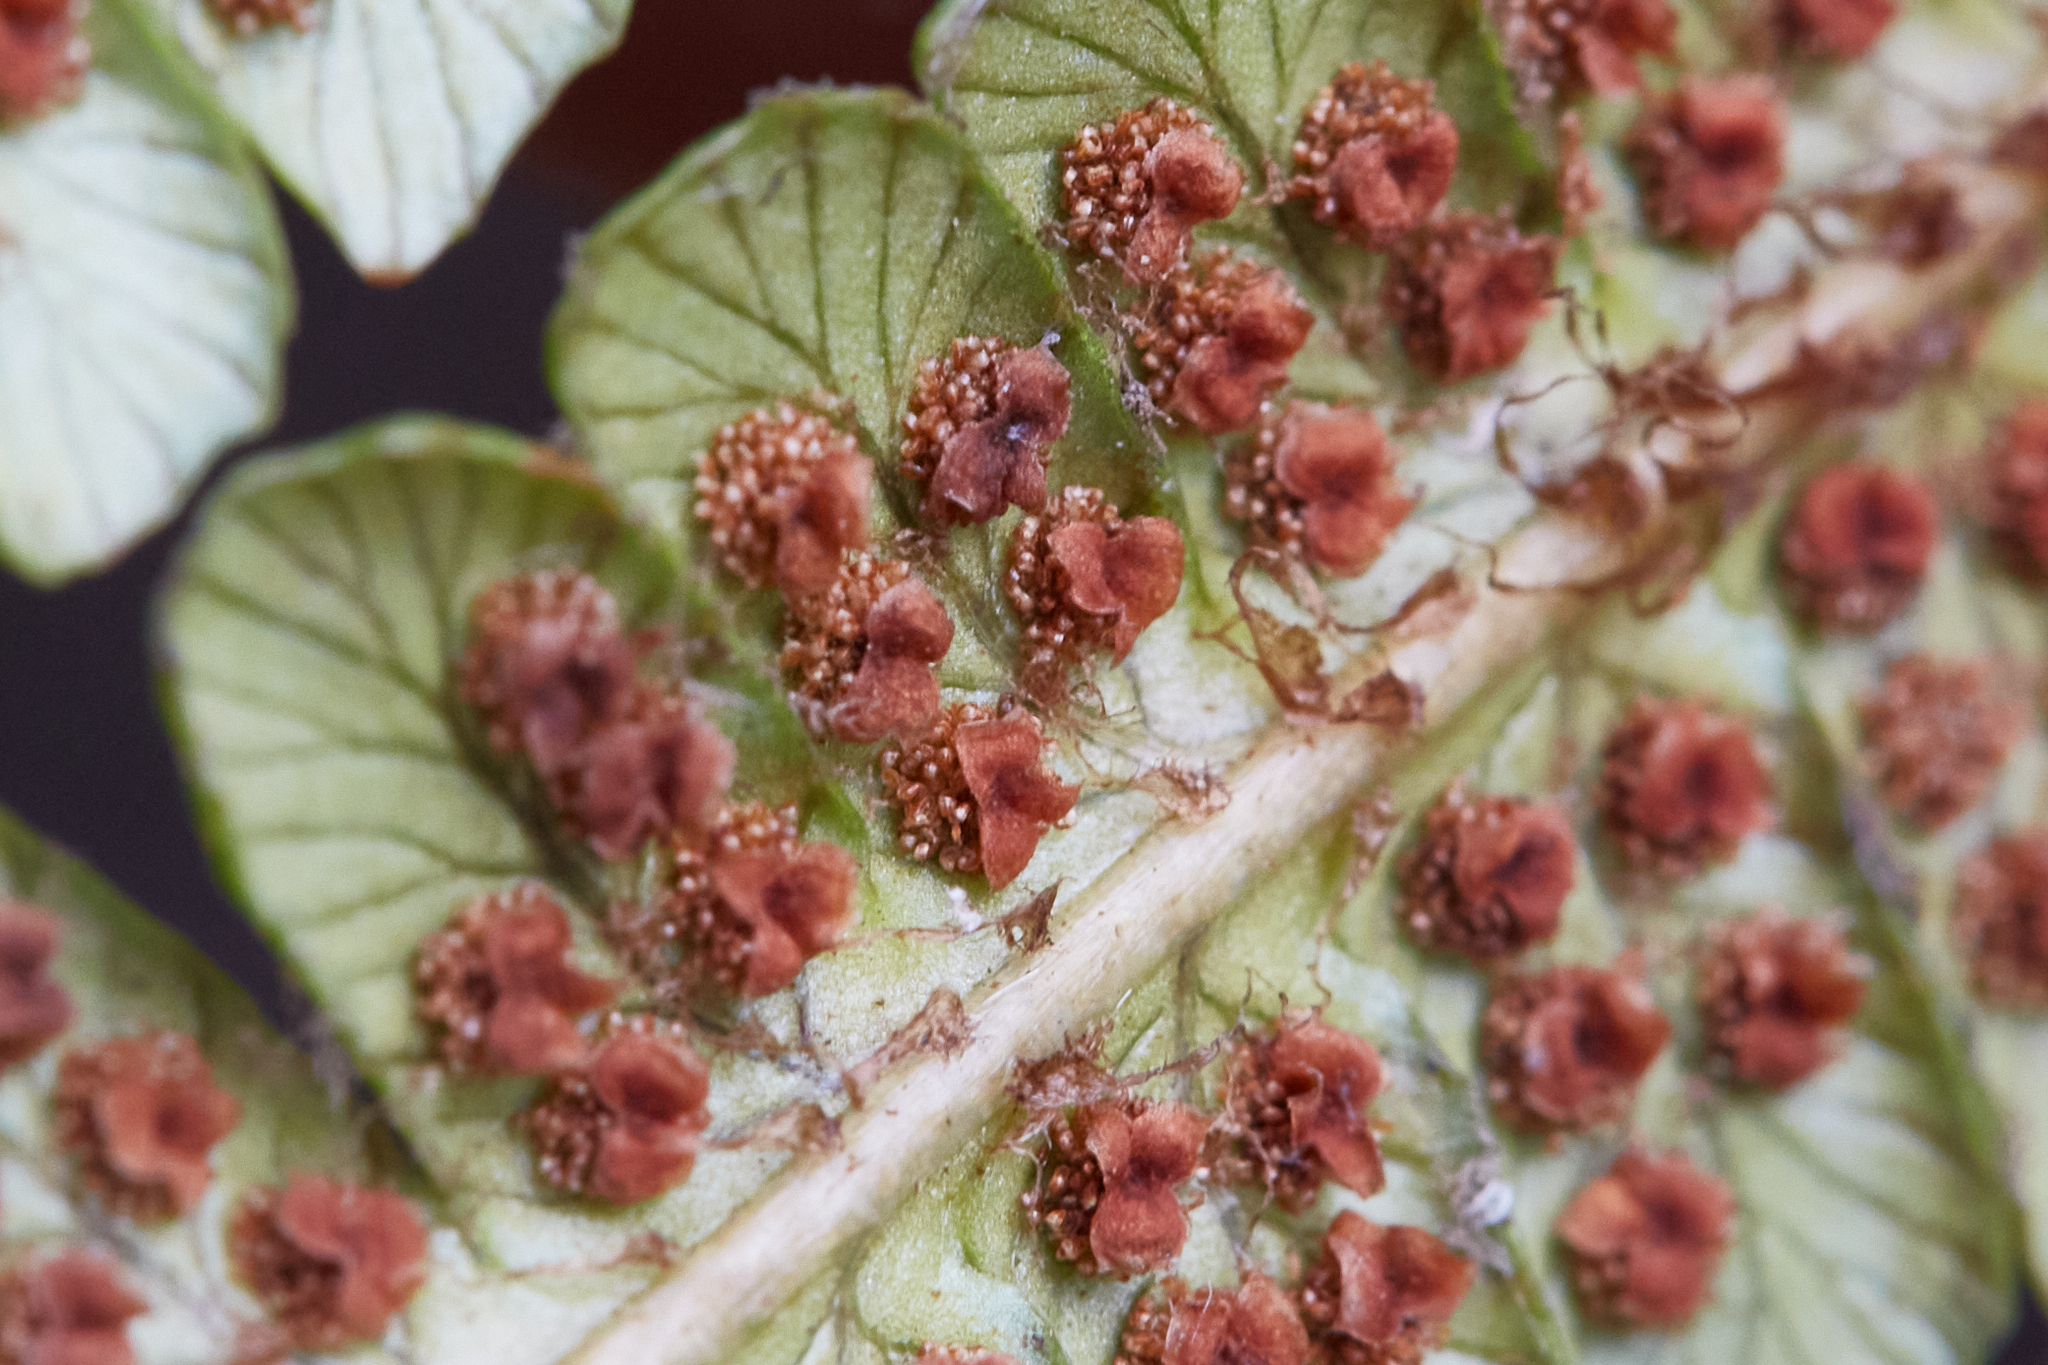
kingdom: Plantae
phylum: Tracheophyta
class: Polypodiopsida
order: Polypodiales
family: Dryopteridaceae
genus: Dryopteris
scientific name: Dryopteris wallichiana
